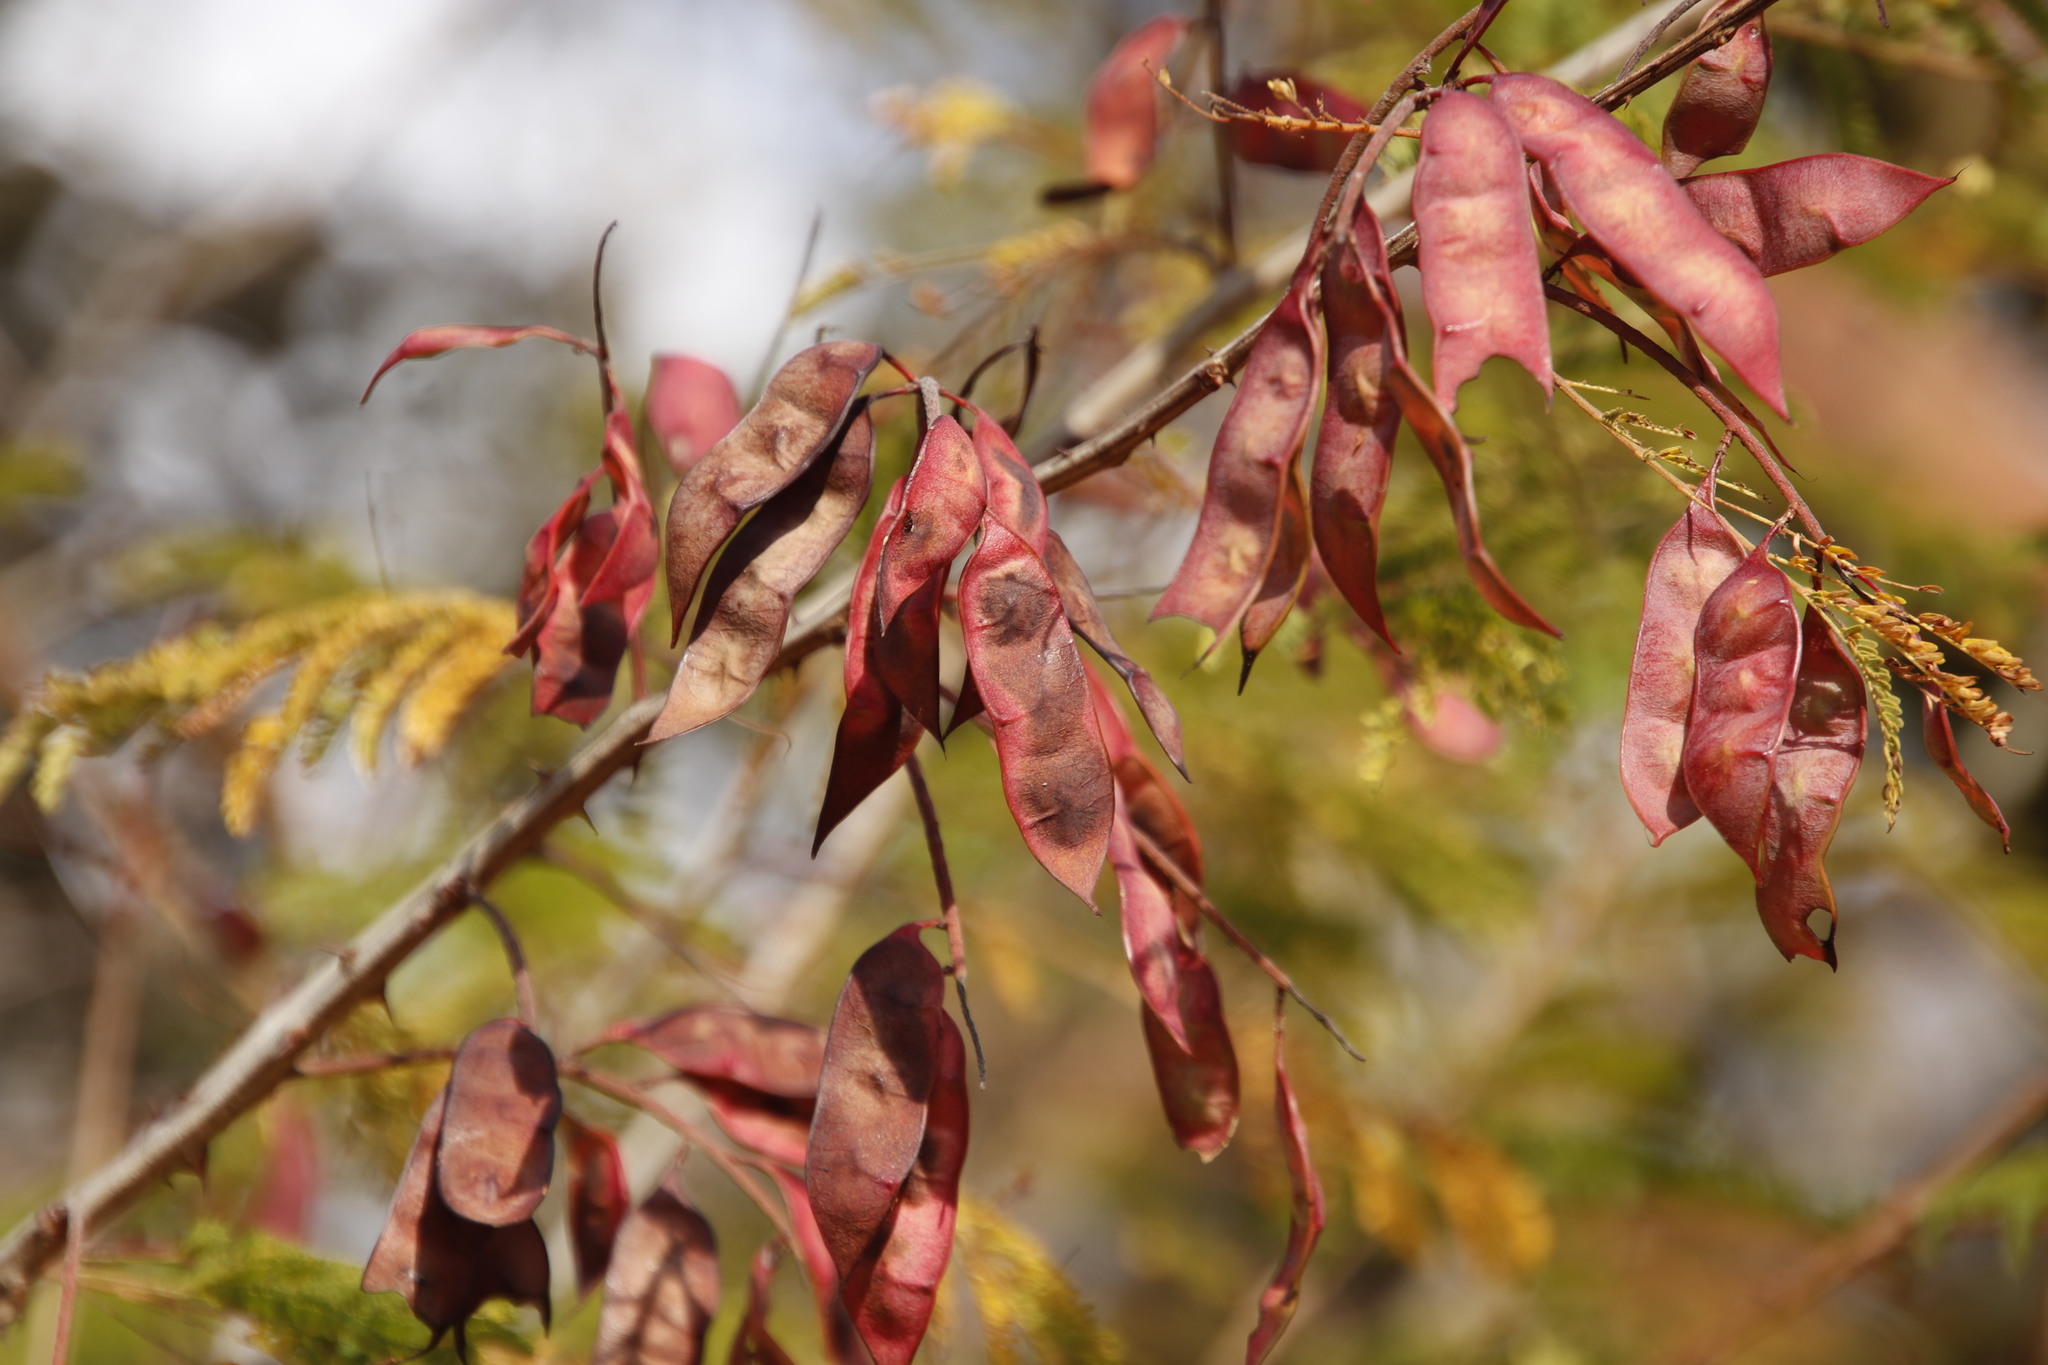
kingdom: Plantae
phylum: Tracheophyta
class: Magnoliopsida
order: Fabales
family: Fabaceae
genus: Senegalia
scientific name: Senegalia ataxacantha
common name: Flame acacia
